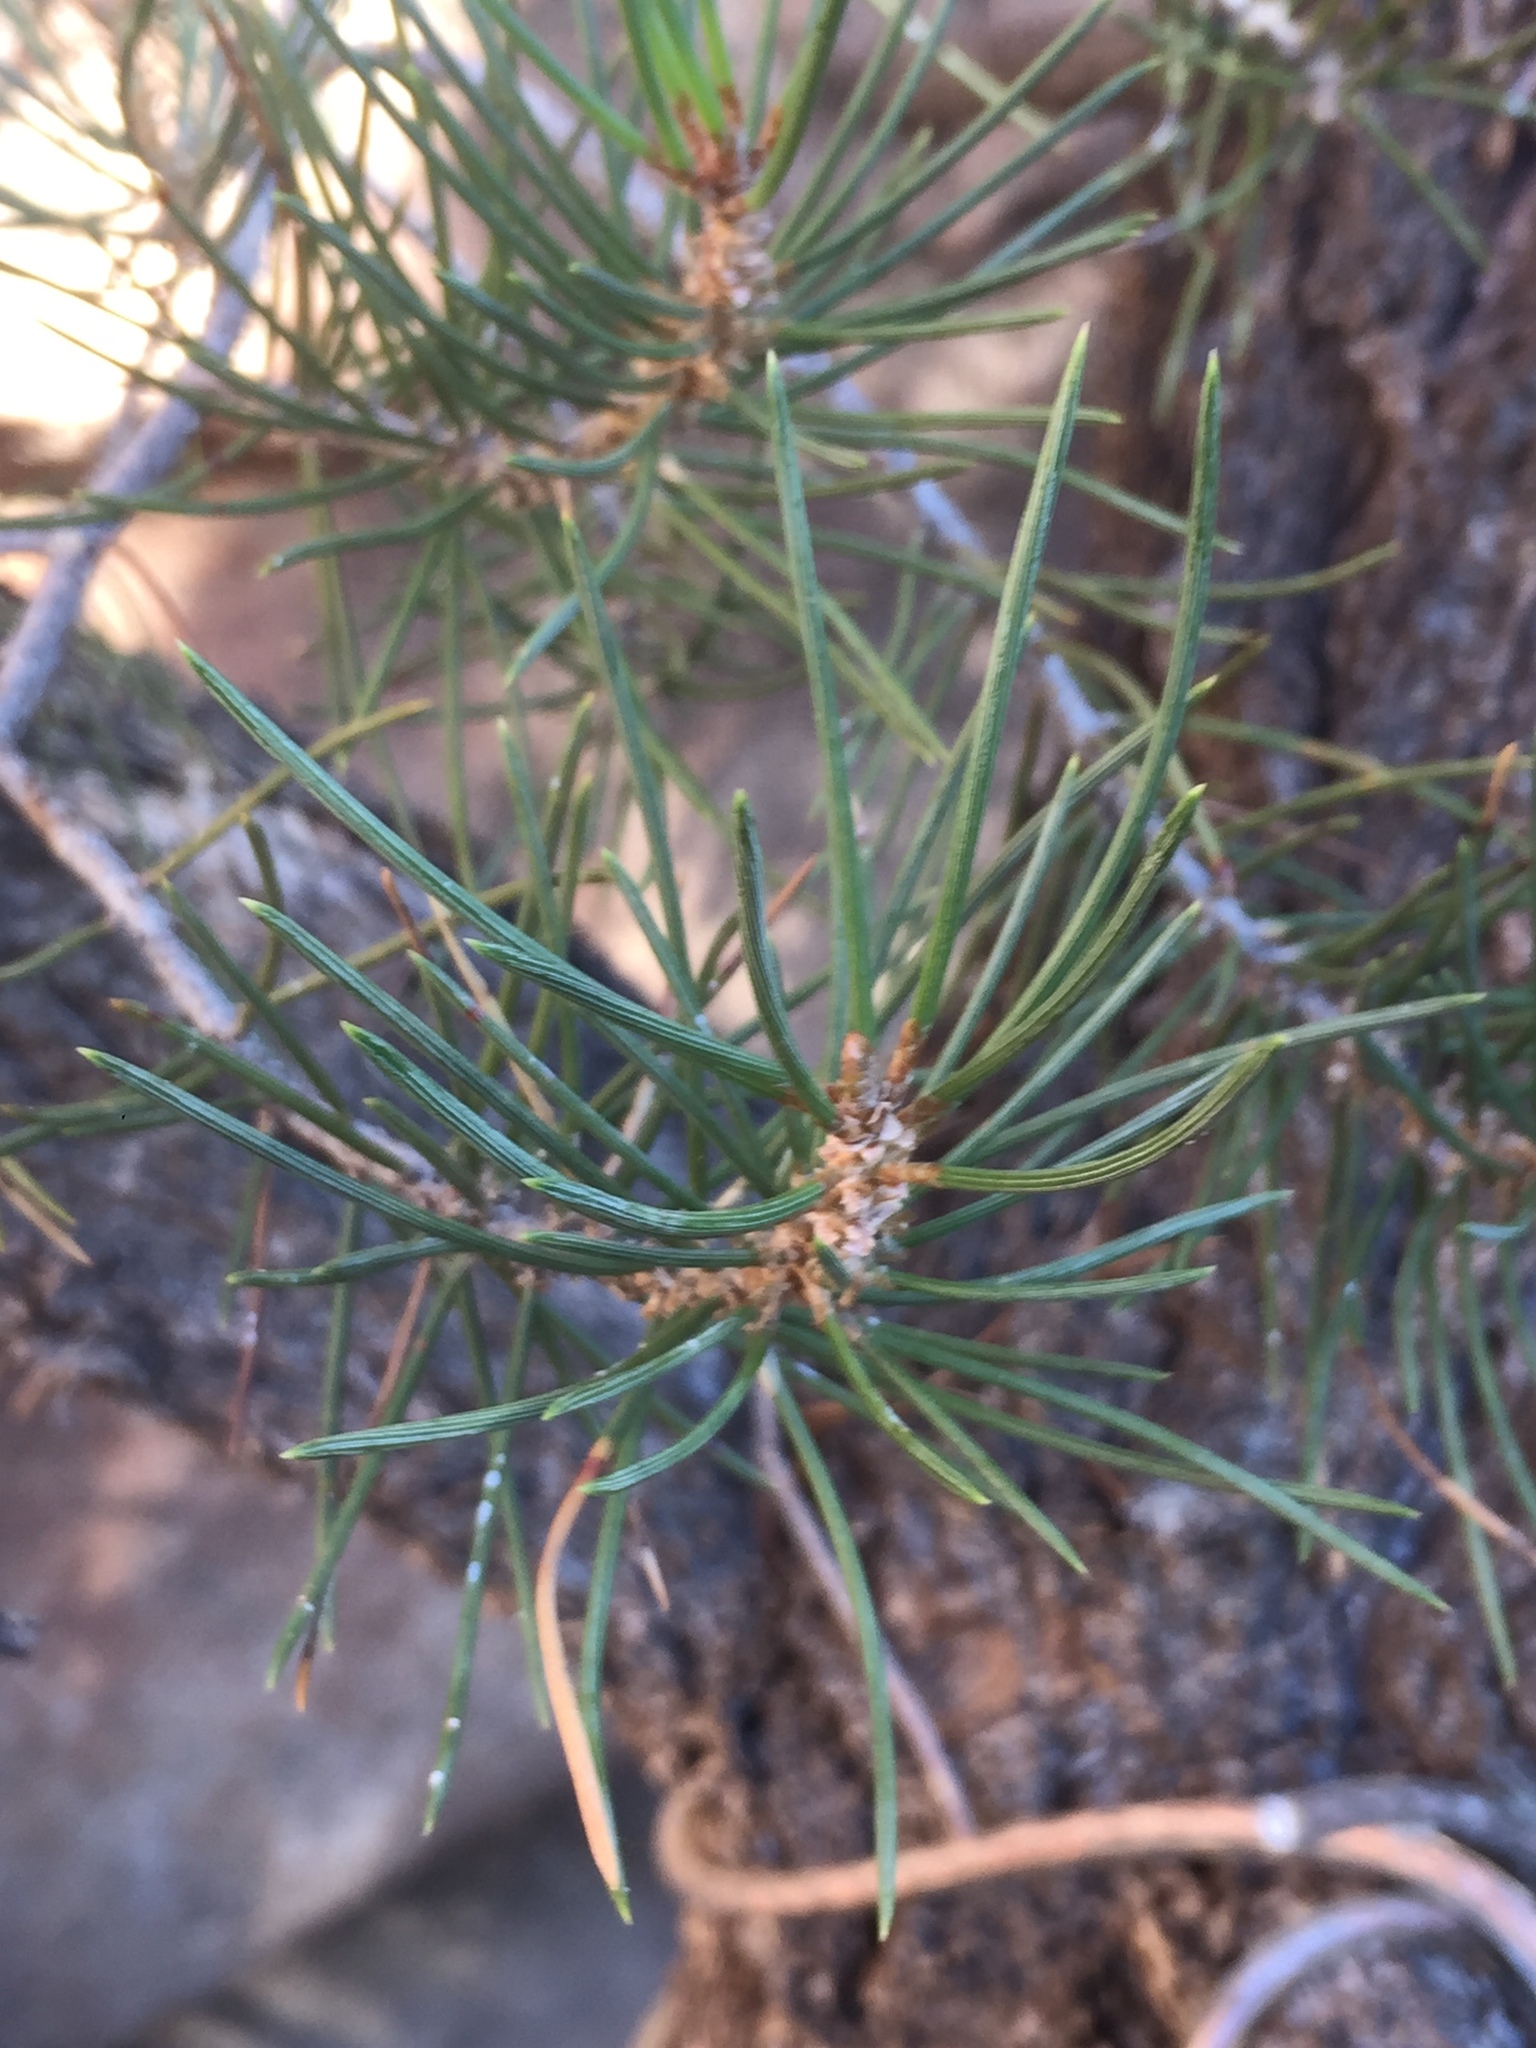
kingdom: Plantae
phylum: Tracheophyta
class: Pinopsida
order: Pinales
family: Pinaceae
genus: Pinus
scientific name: Pinus monophylla
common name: One-leaved nut pine
